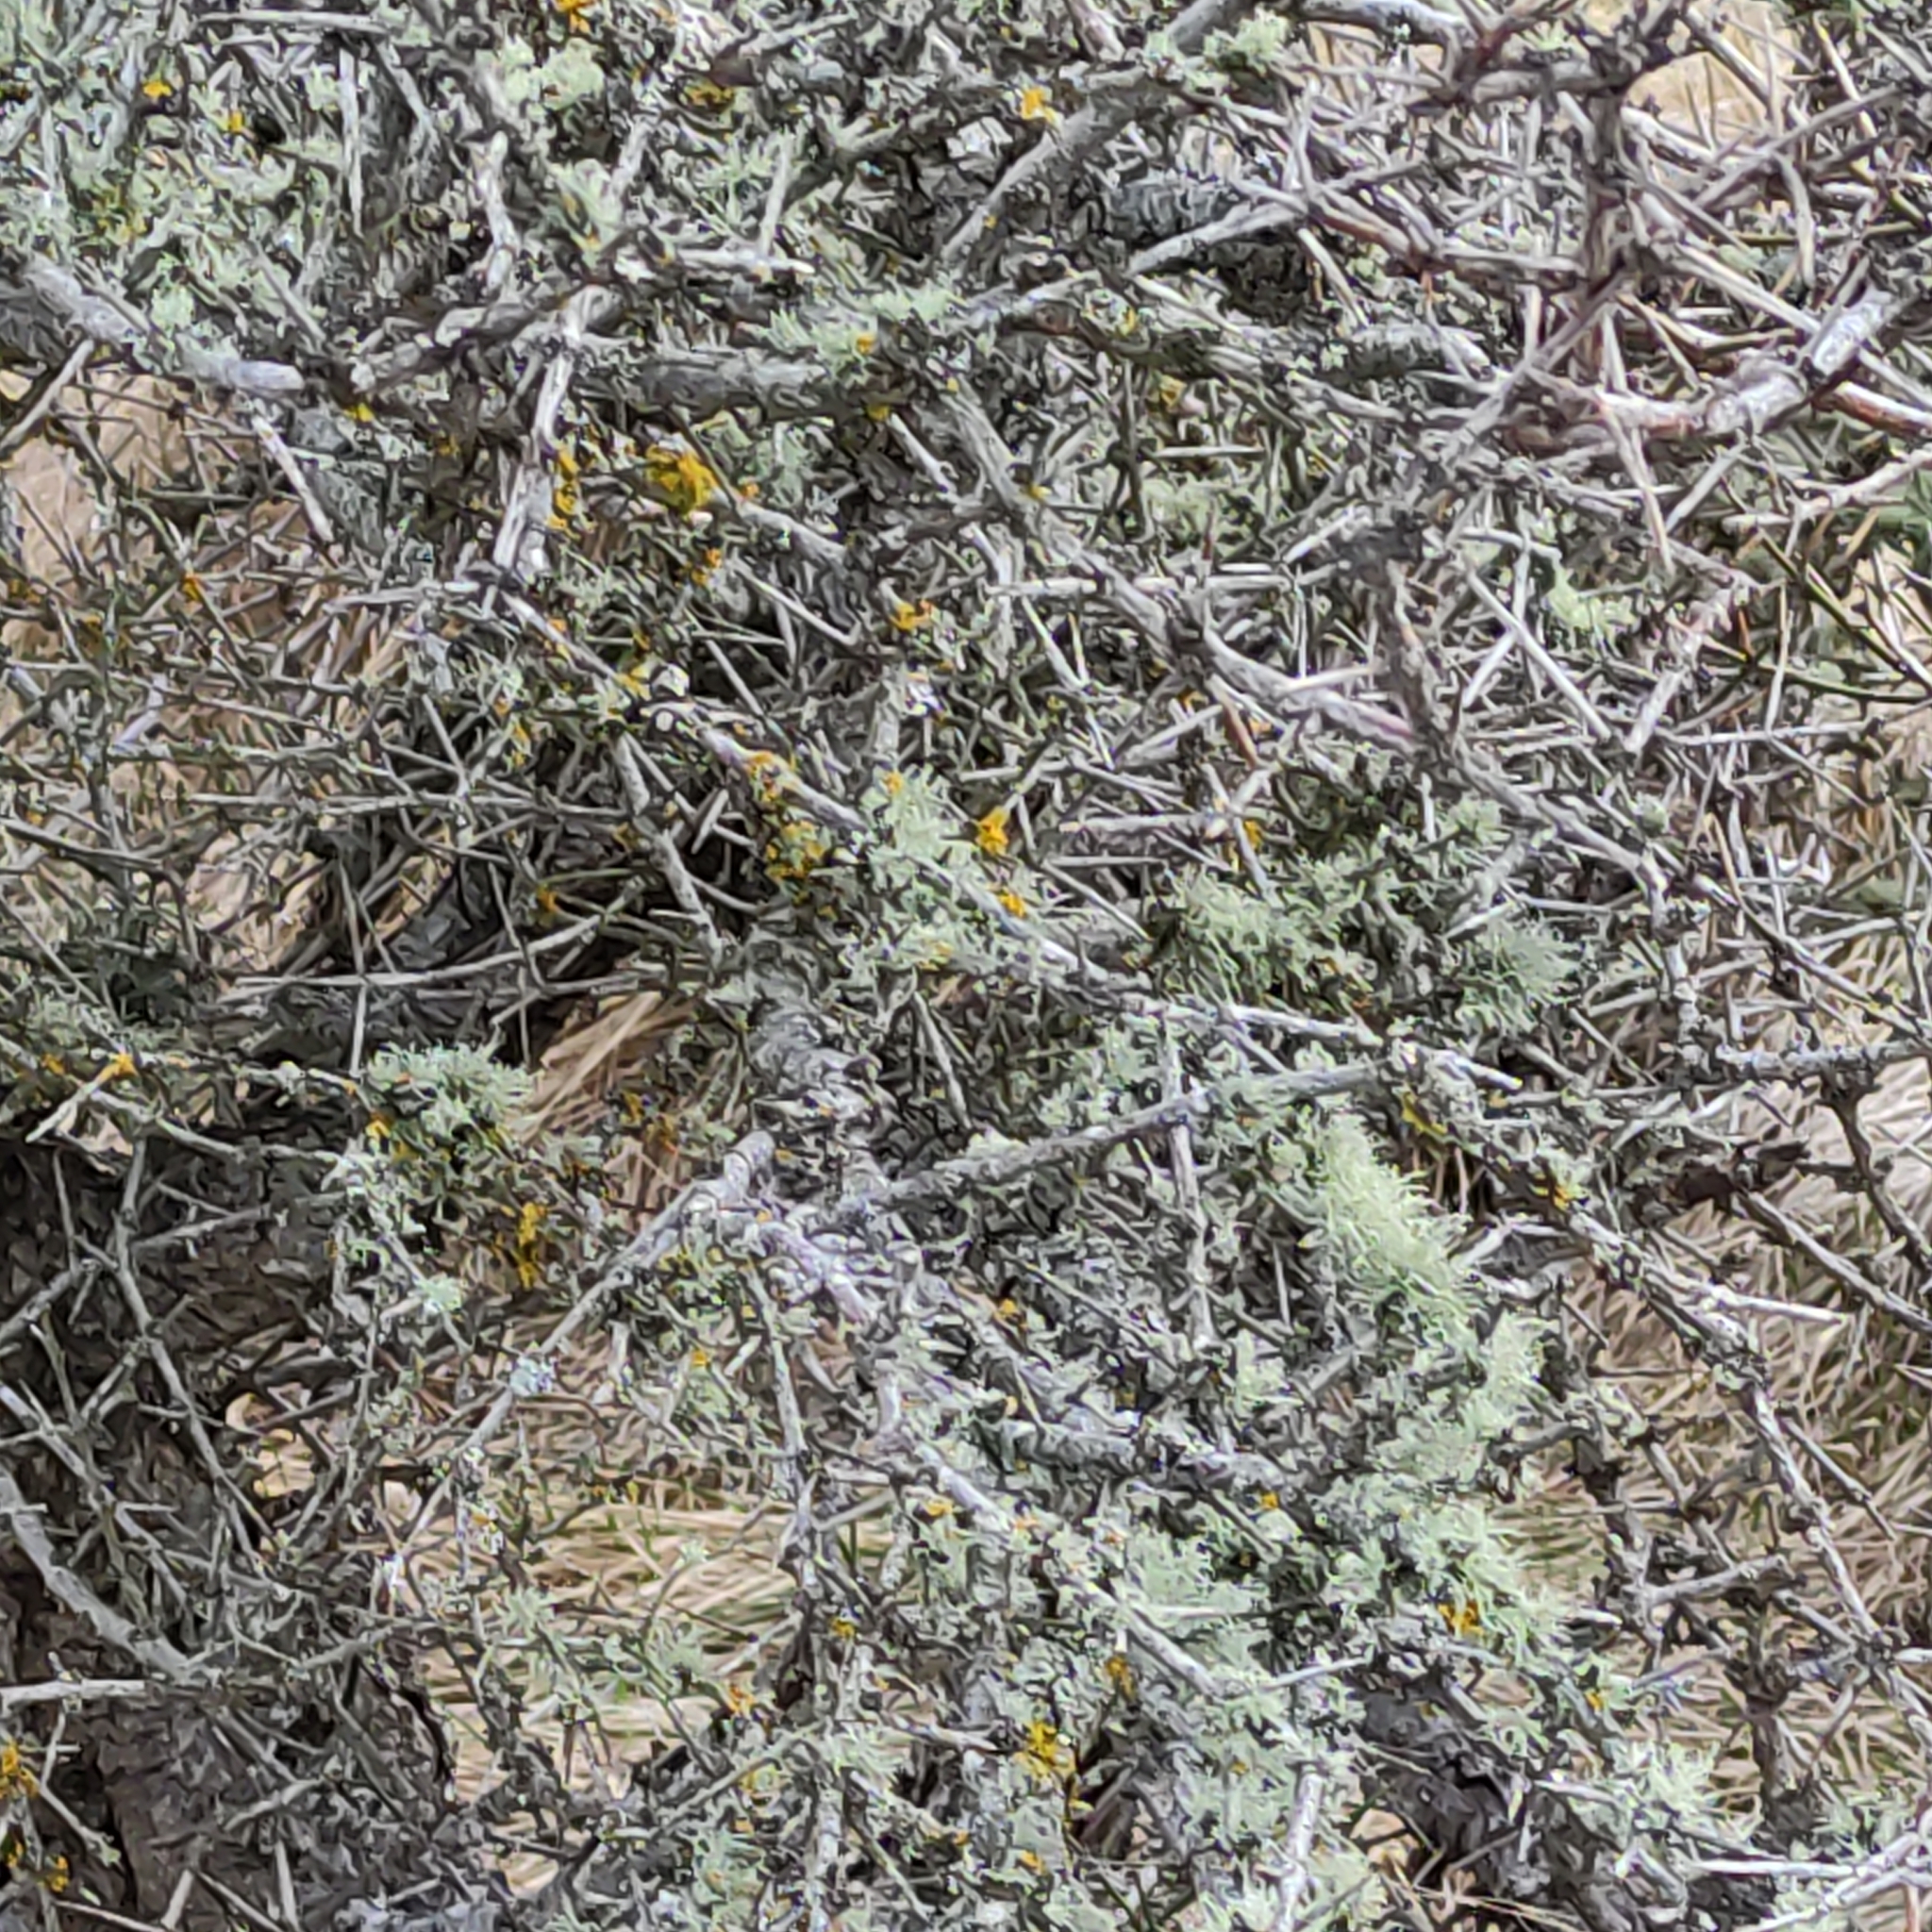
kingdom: Plantae
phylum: Tracheophyta
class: Magnoliopsida
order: Rosales
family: Rhamnaceae
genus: Discaria
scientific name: Discaria toumatou
